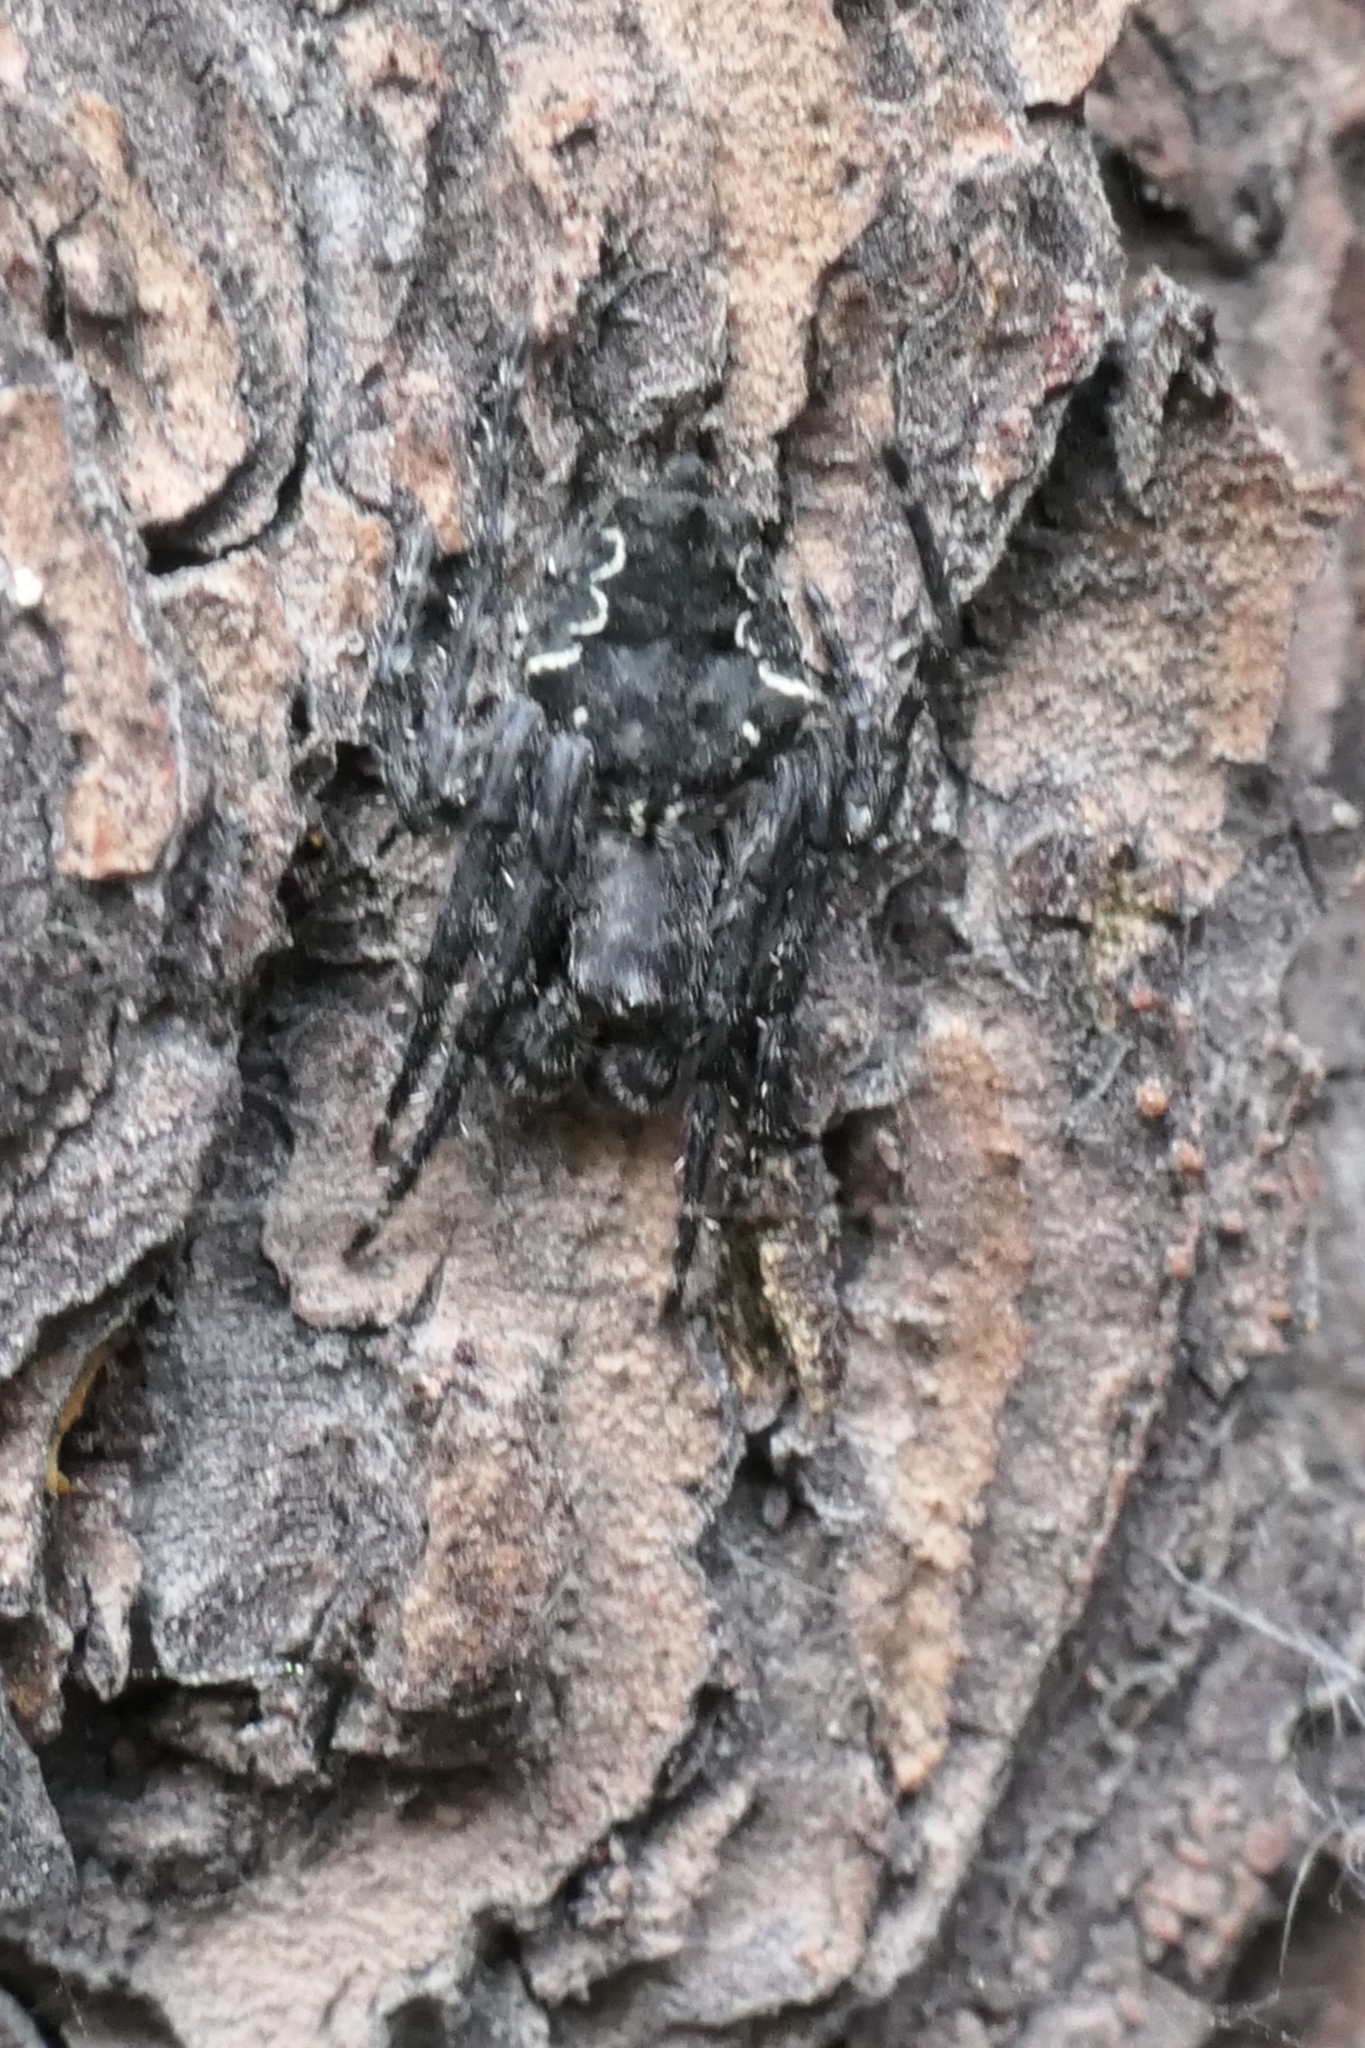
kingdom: Animalia
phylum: Arthropoda
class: Arachnida
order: Araneae
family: Araneidae
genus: Eriophora
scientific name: Eriophora pustulosa
